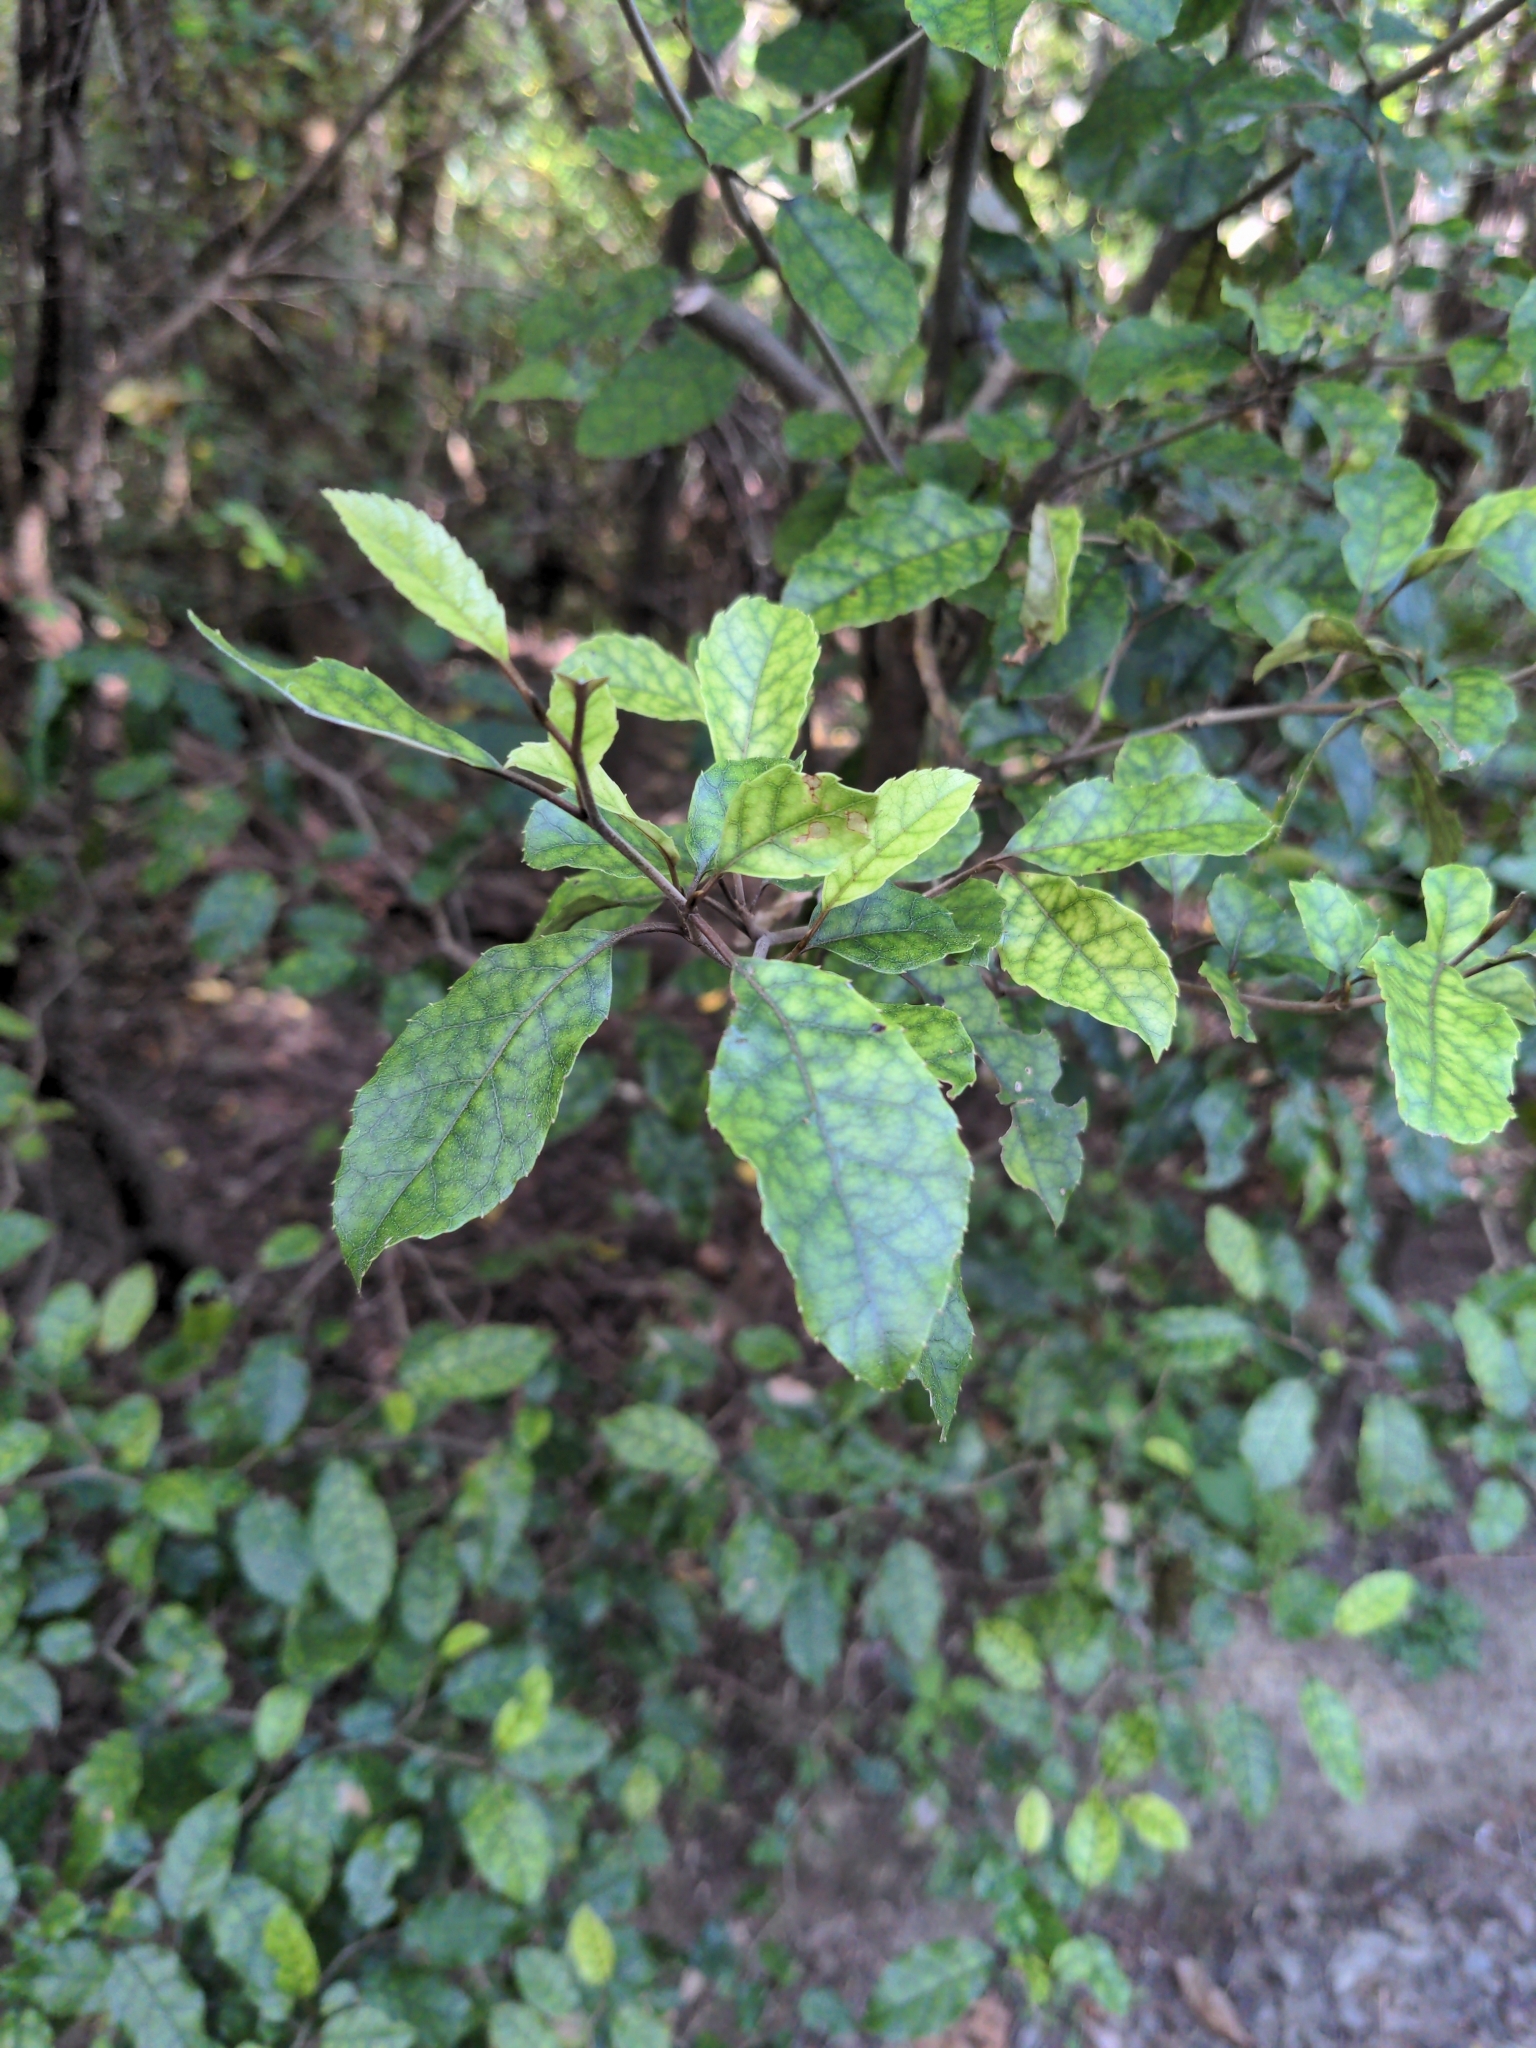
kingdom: Plantae
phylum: Tracheophyta
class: Magnoliopsida
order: Asterales
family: Rousseaceae
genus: Carpodetus
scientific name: Carpodetus serratus
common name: White mapau
